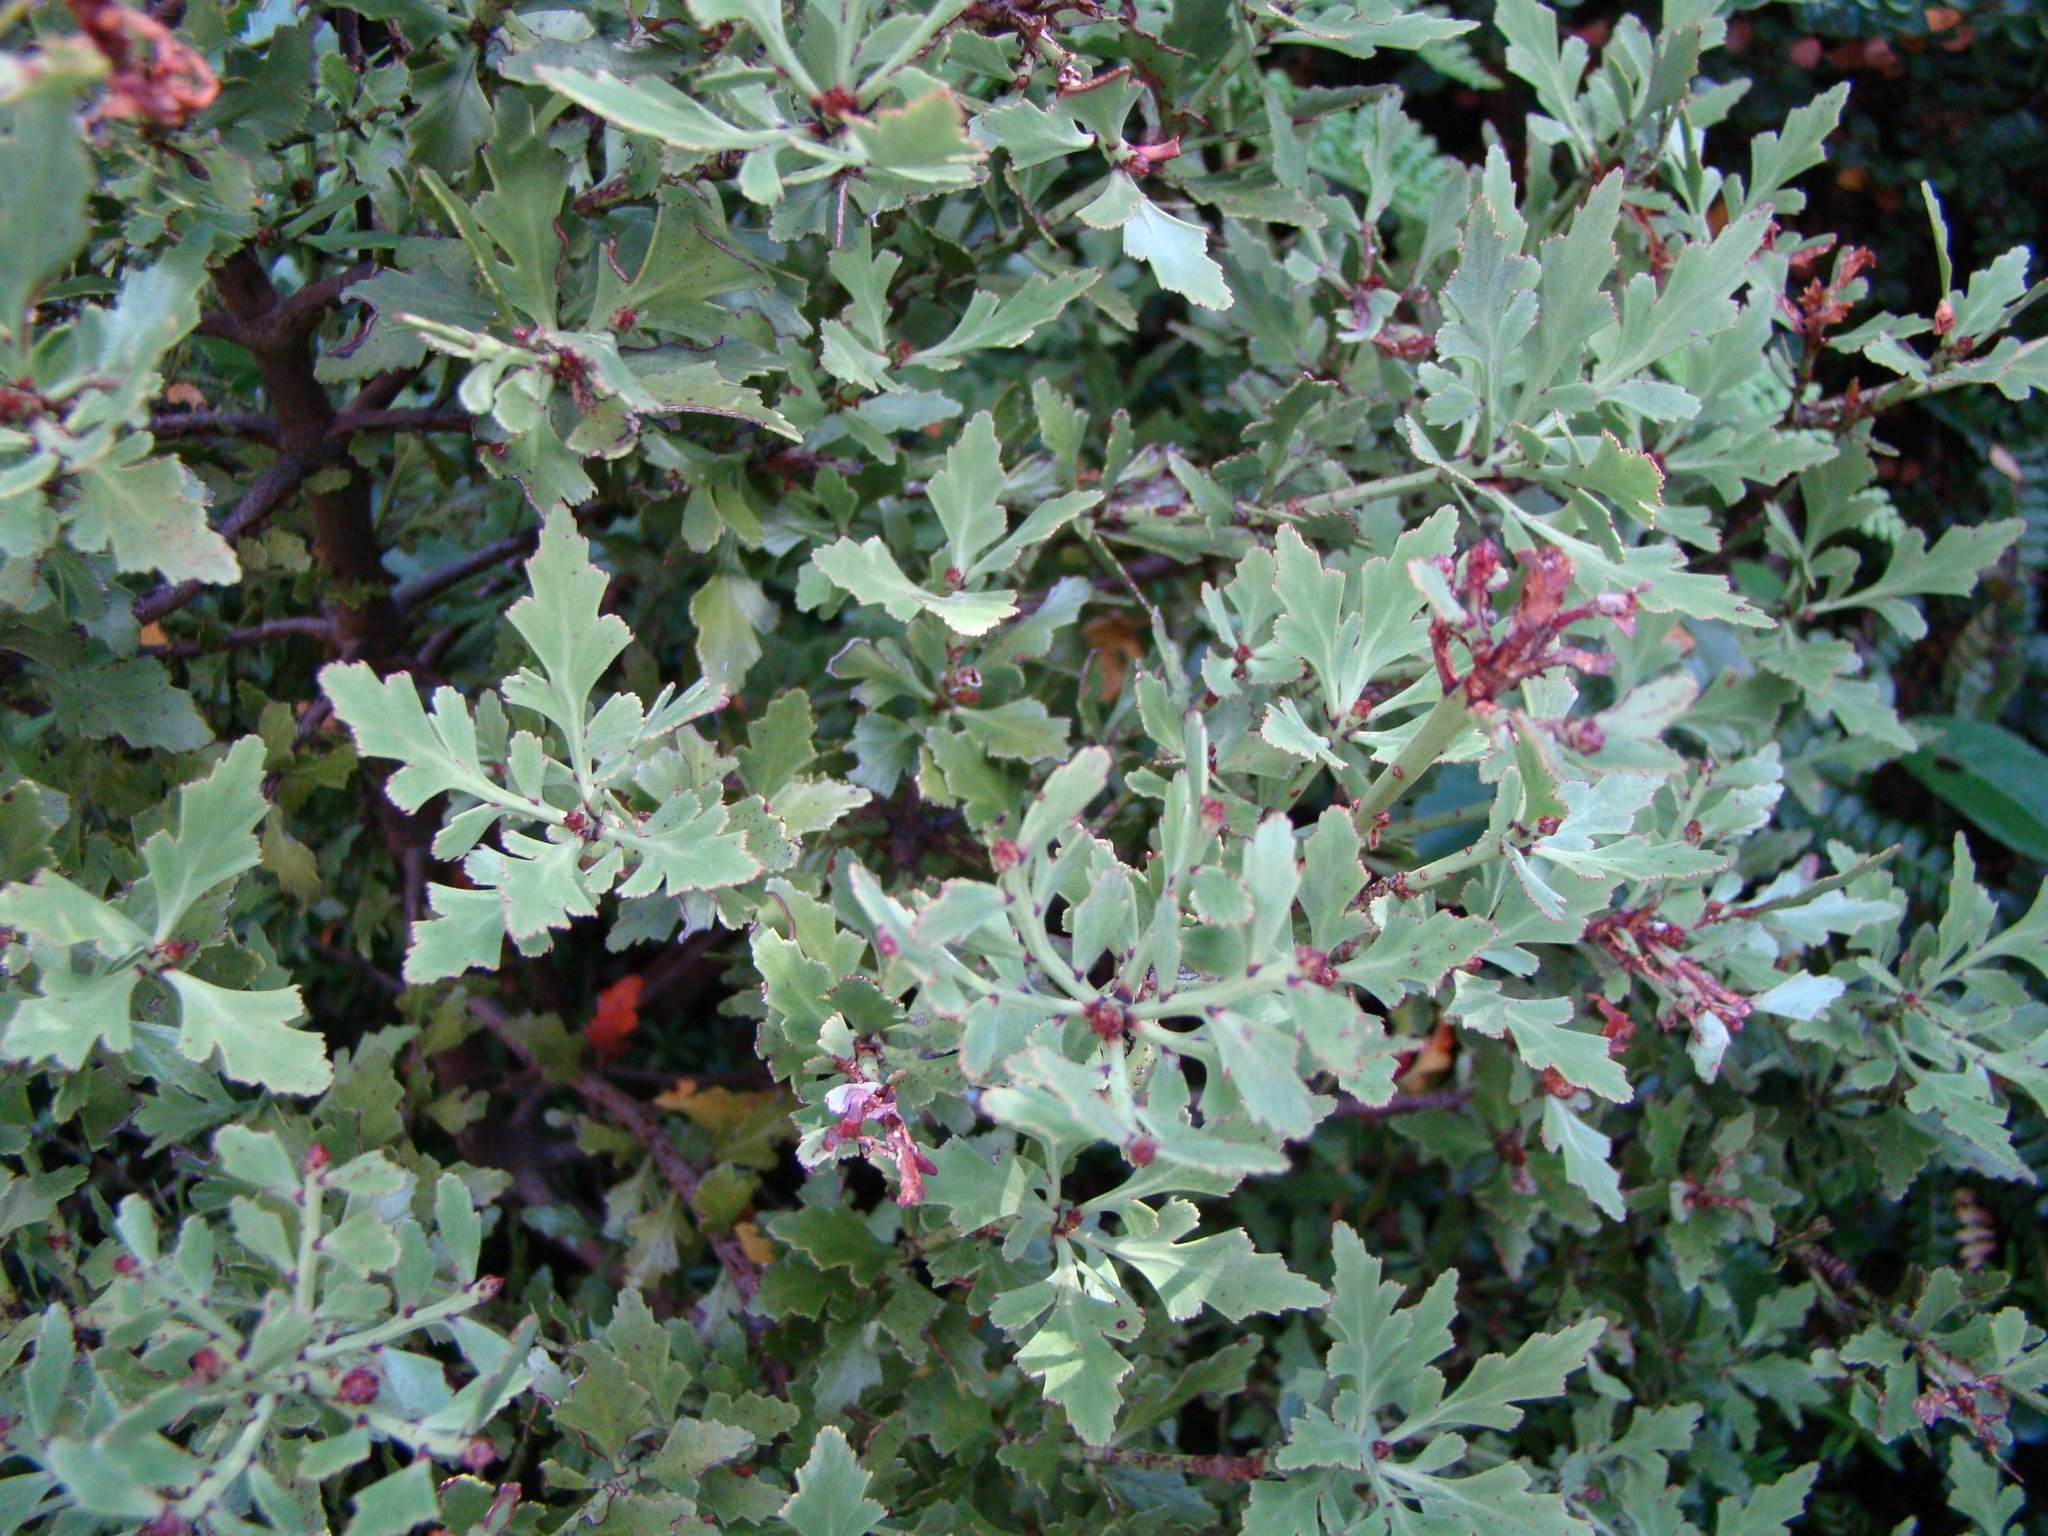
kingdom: Plantae
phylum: Tracheophyta
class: Pinopsida
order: Pinales
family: Phyllocladaceae
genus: Phyllocladus
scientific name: Phyllocladus trichomanoides
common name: Celery pine
